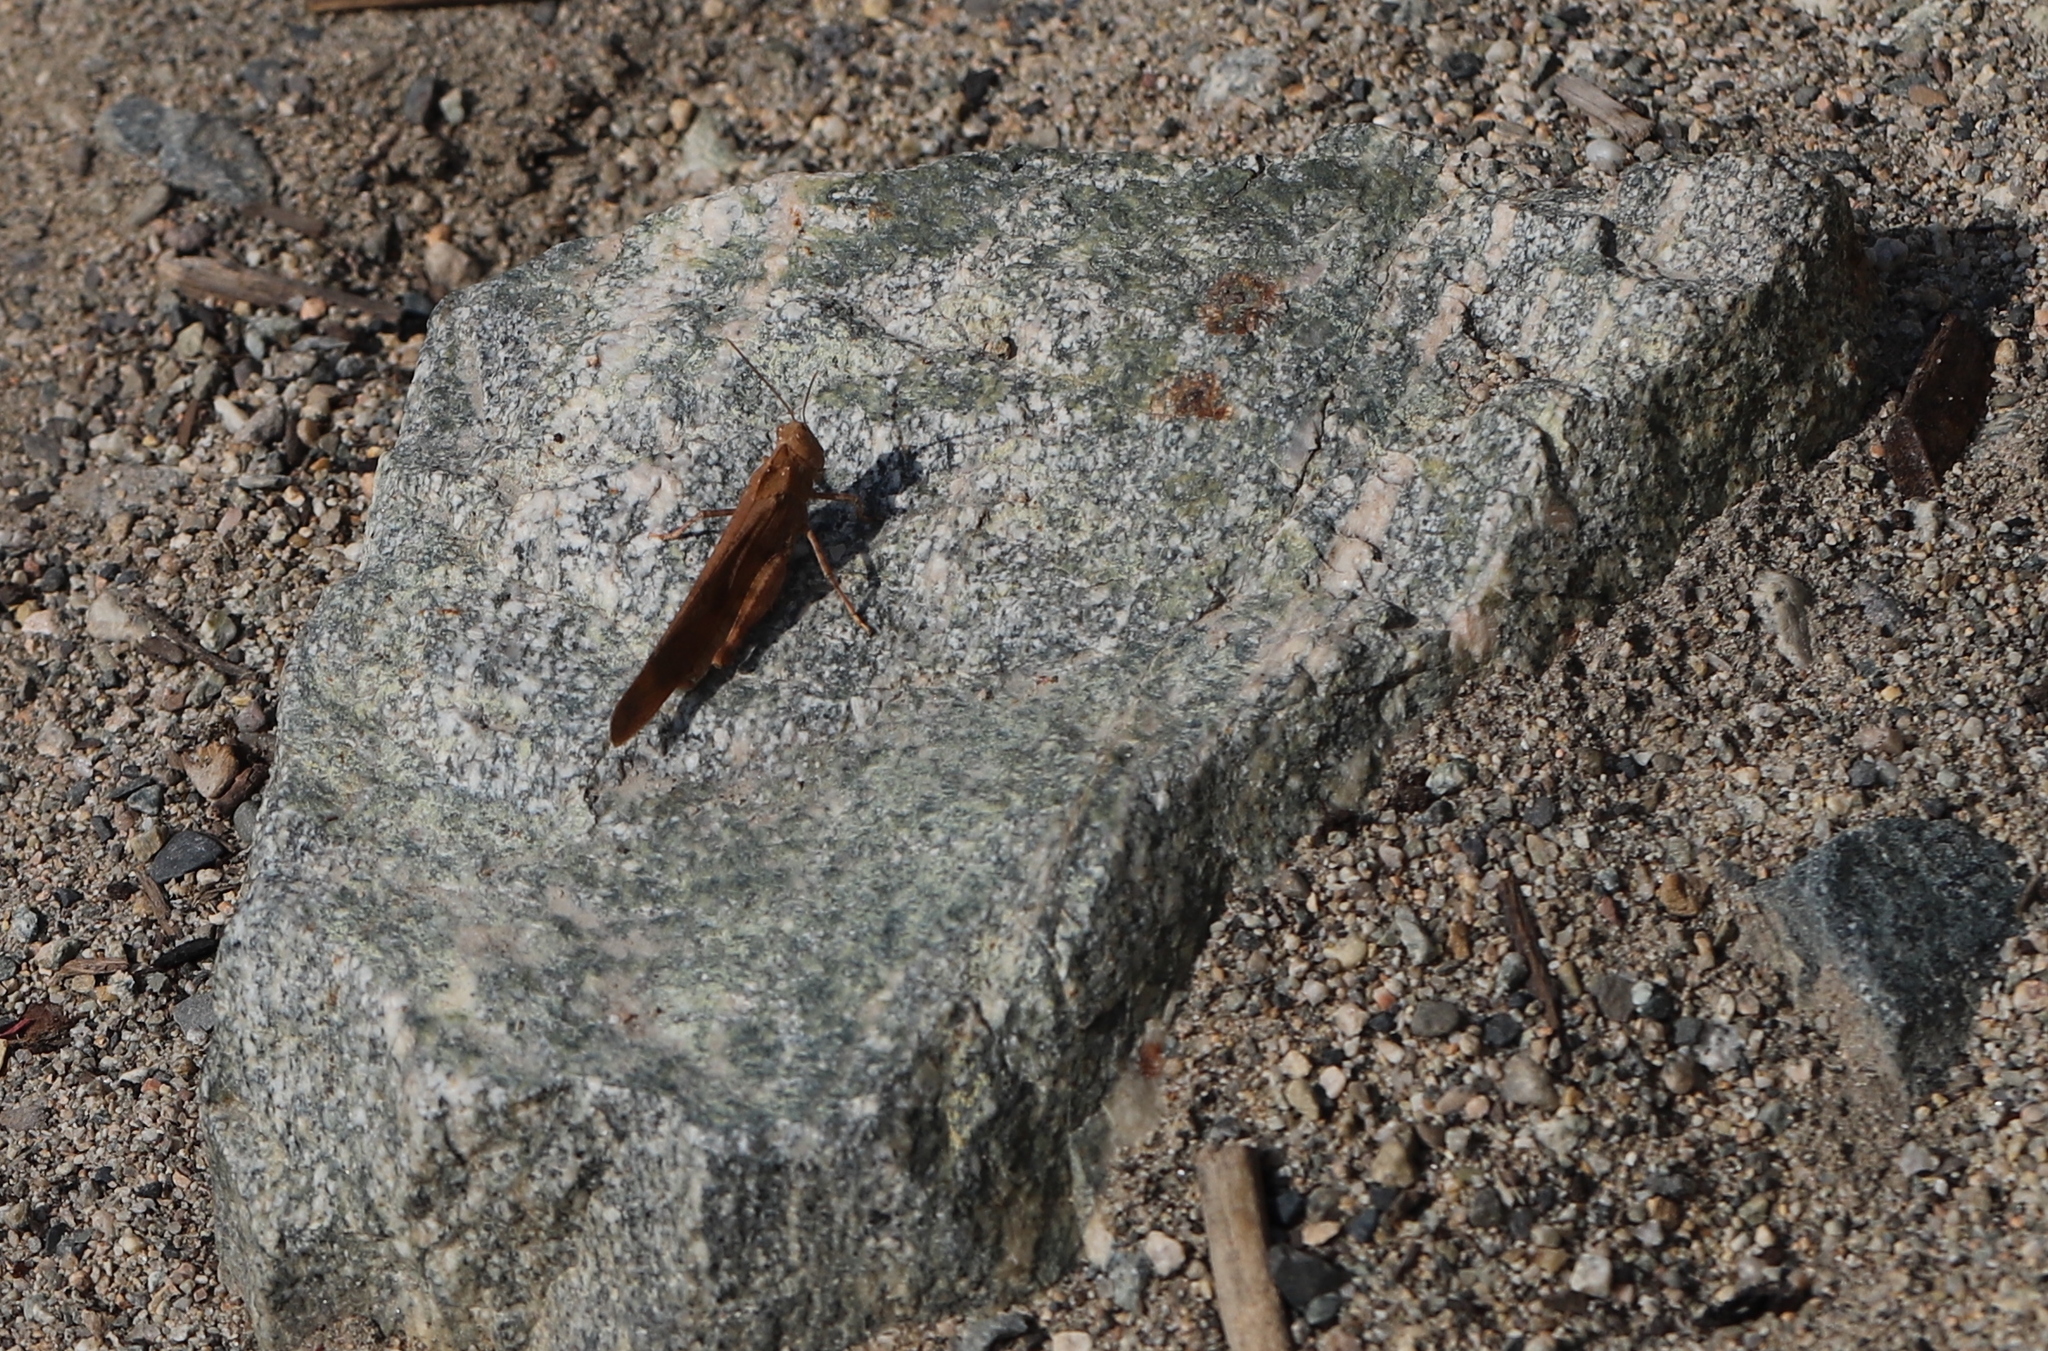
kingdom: Animalia
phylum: Arthropoda
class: Insecta
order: Orthoptera
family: Acrididae
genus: Dissosteira
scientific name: Dissosteira carolina
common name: Carolina grasshopper
